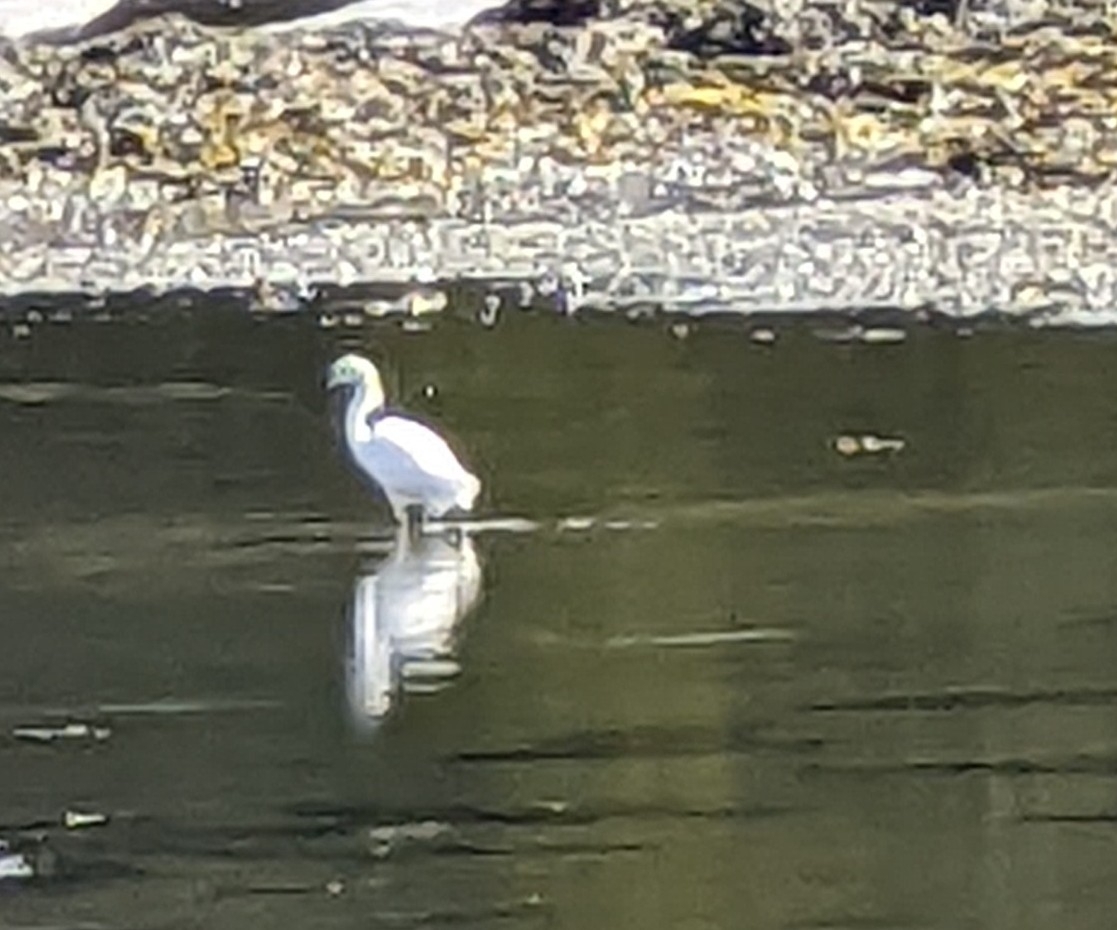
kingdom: Animalia
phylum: Chordata
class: Aves
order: Pelecaniformes
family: Ardeidae
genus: Egretta
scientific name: Egretta garzetta
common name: Little egret
